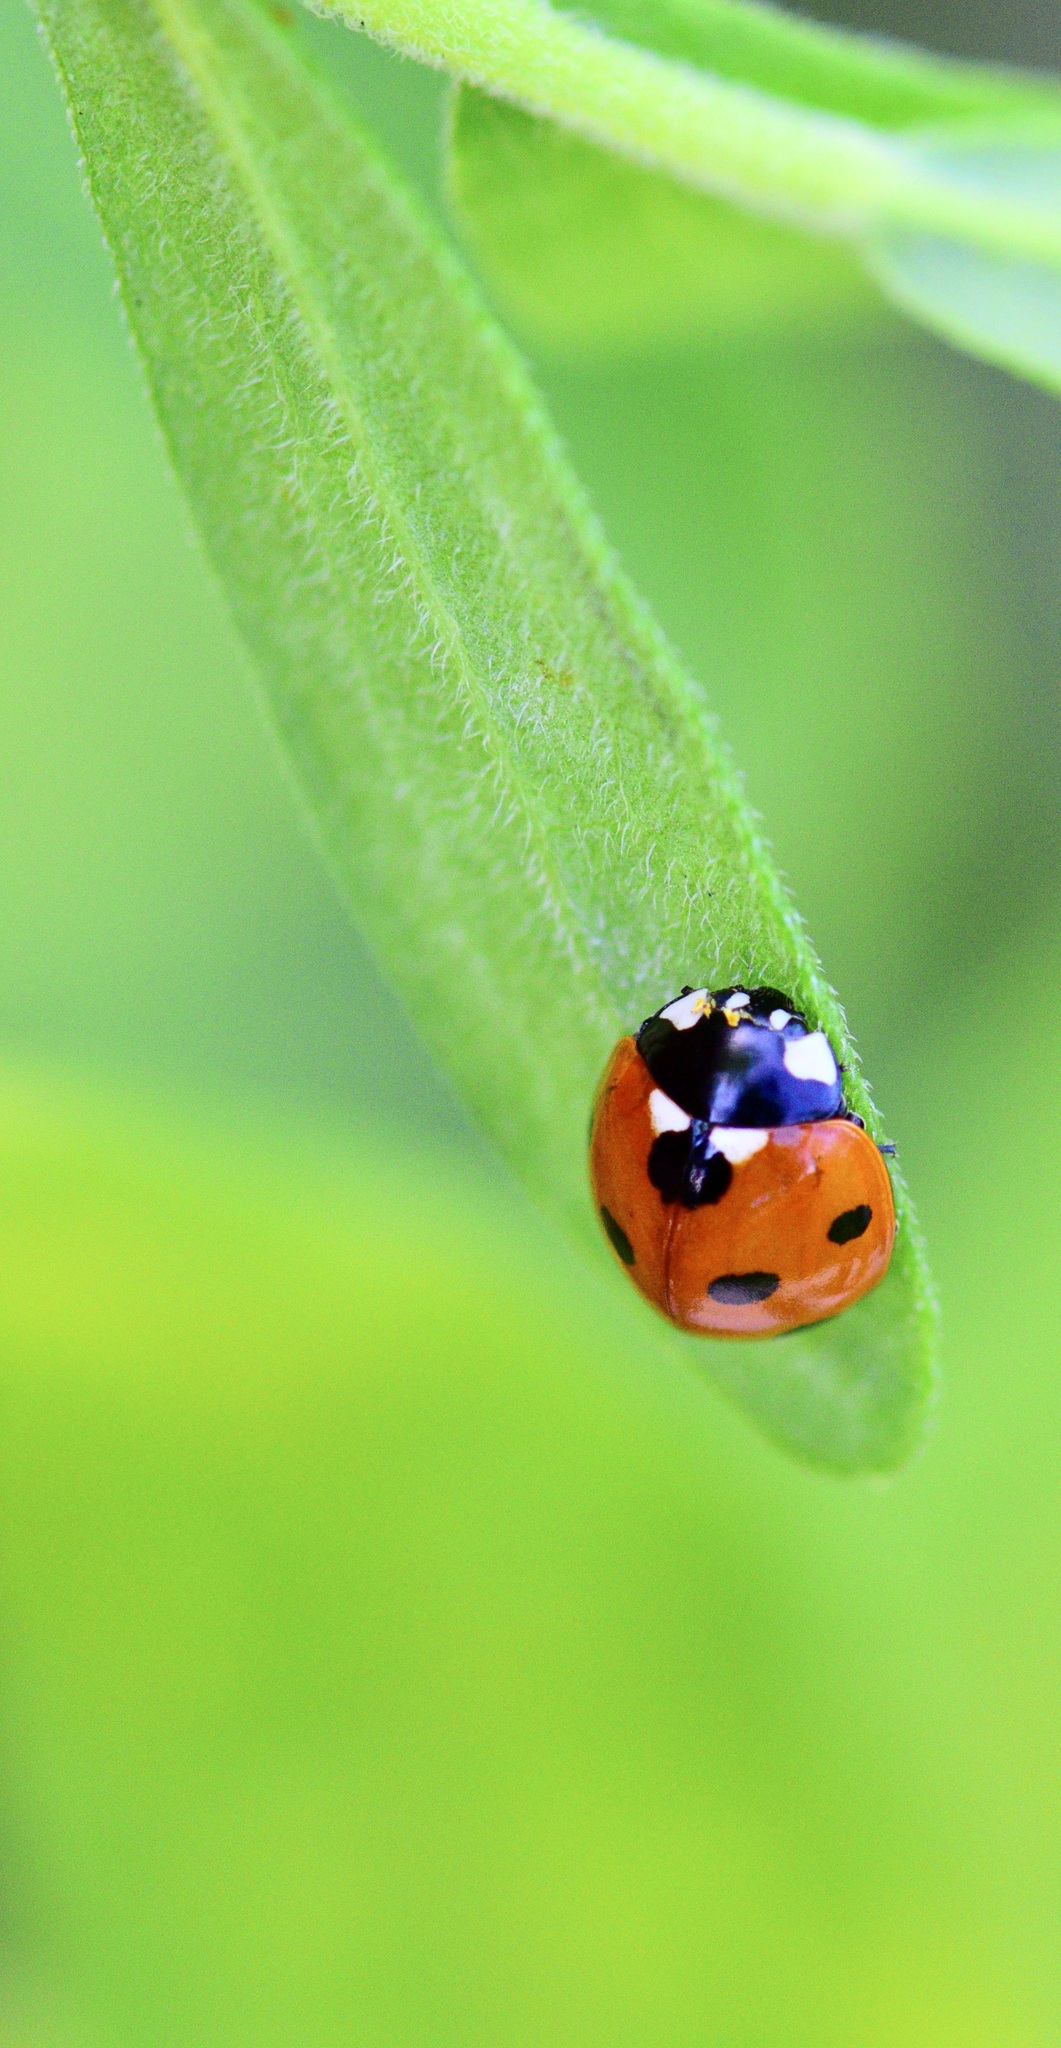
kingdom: Animalia
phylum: Arthropoda
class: Insecta
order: Coleoptera
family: Coccinellidae
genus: Coccinella
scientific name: Coccinella septempunctata
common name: Sevenspotted lady beetle
